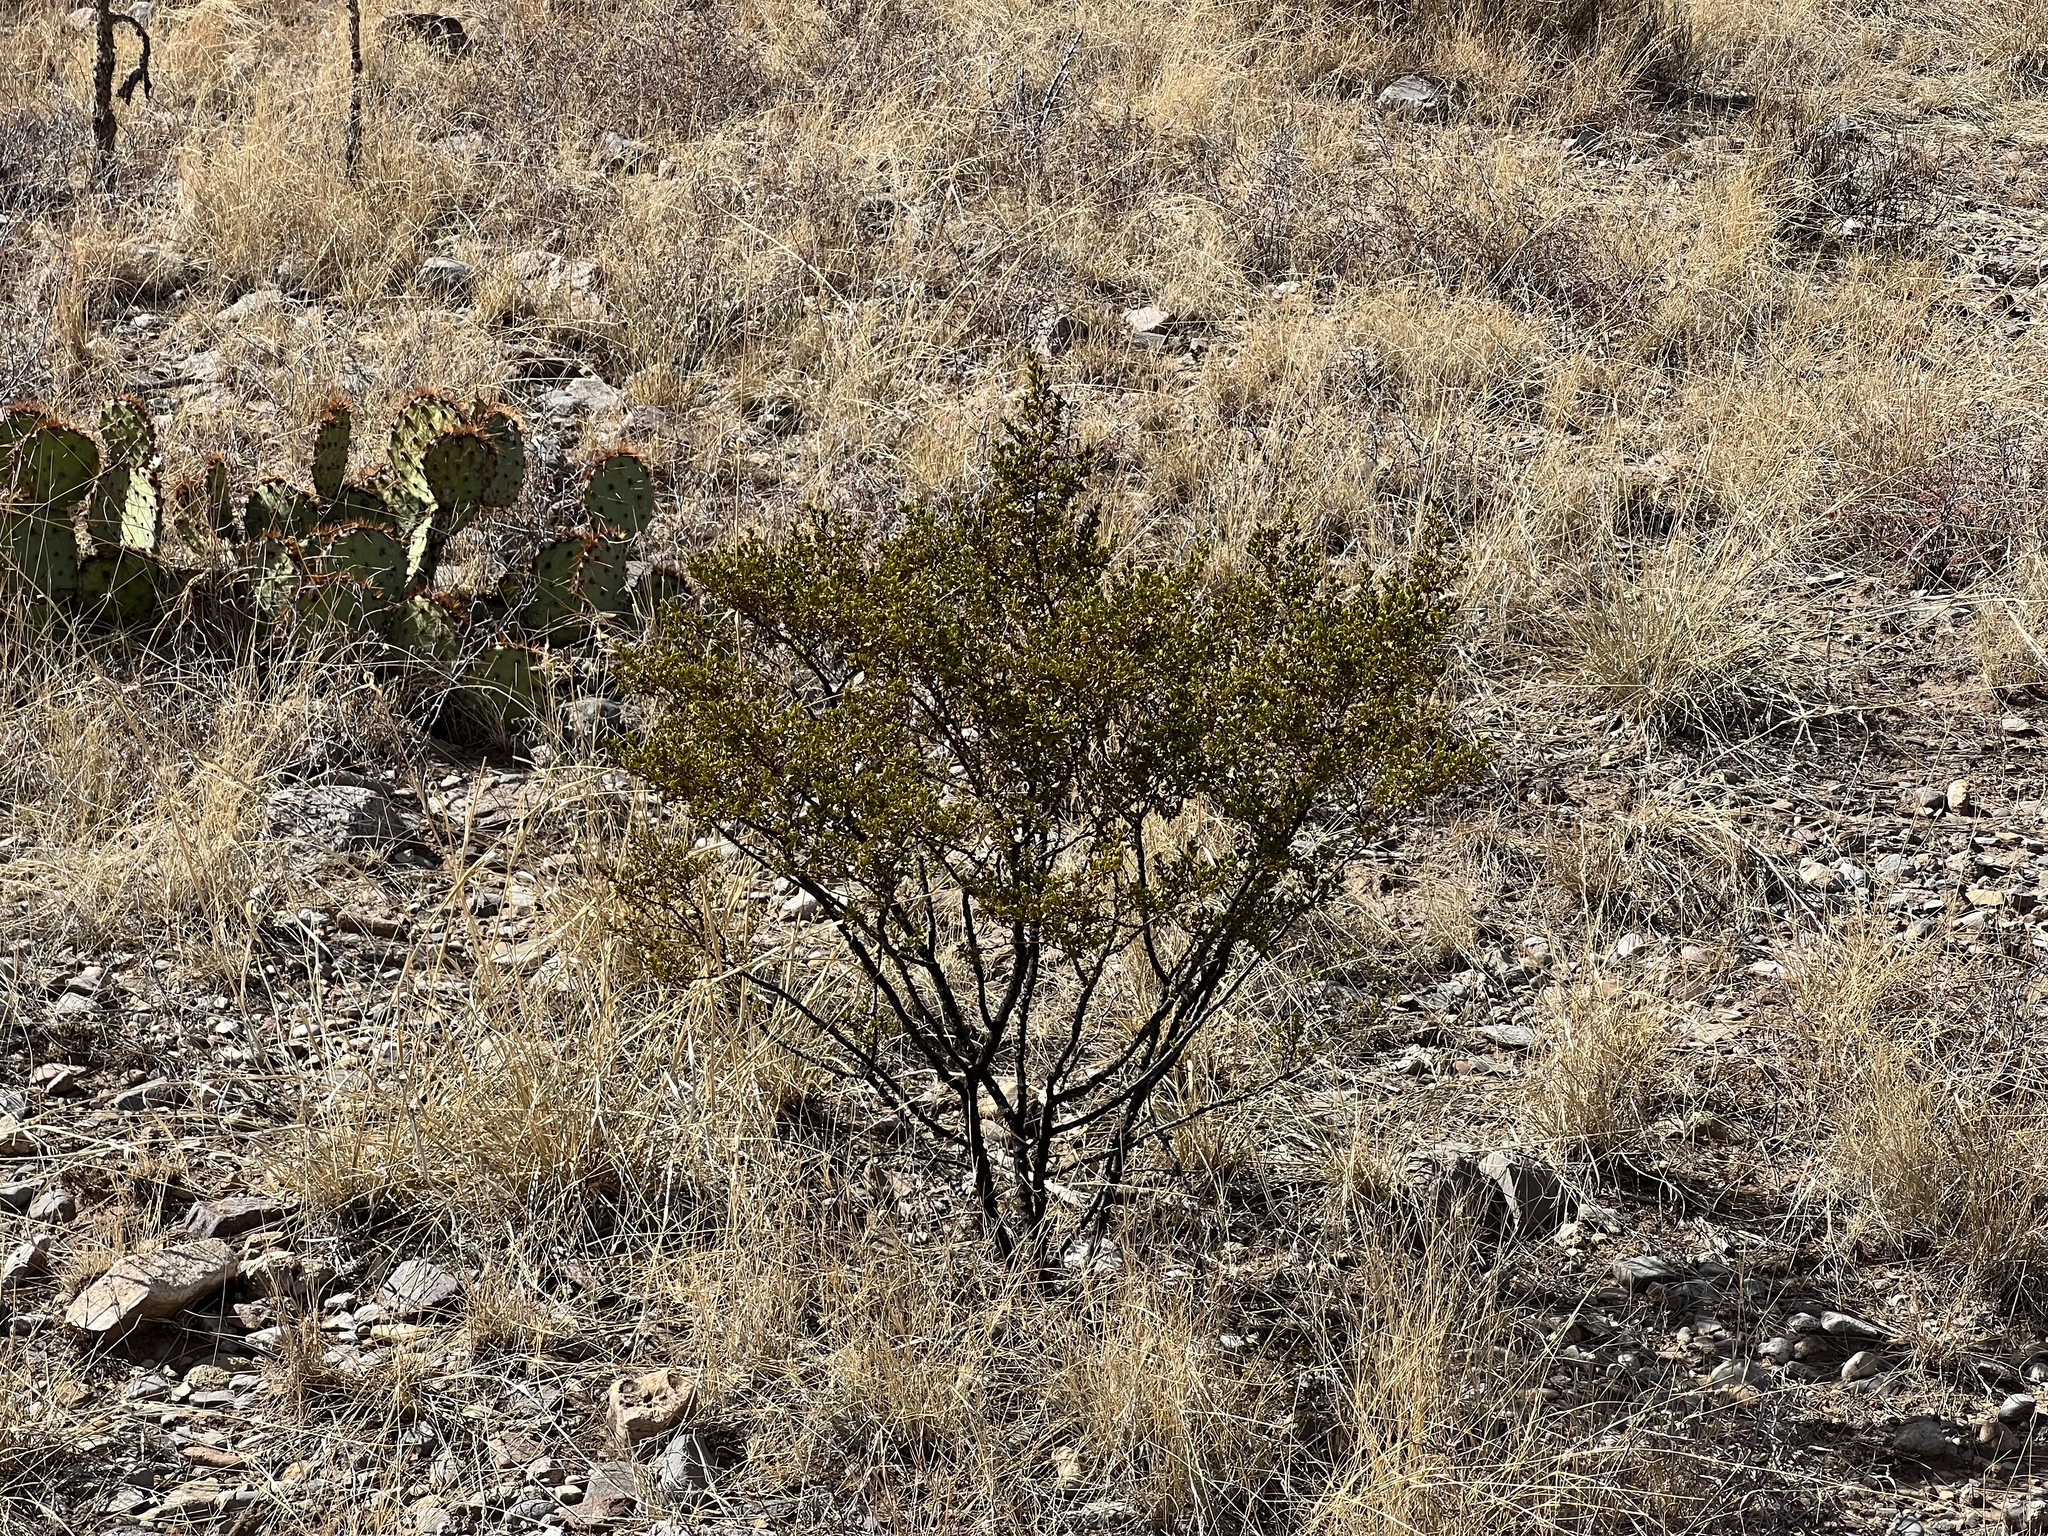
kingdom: Plantae
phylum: Tracheophyta
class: Magnoliopsida
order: Zygophyllales
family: Zygophyllaceae
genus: Larrea
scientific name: Larrea tridentata
